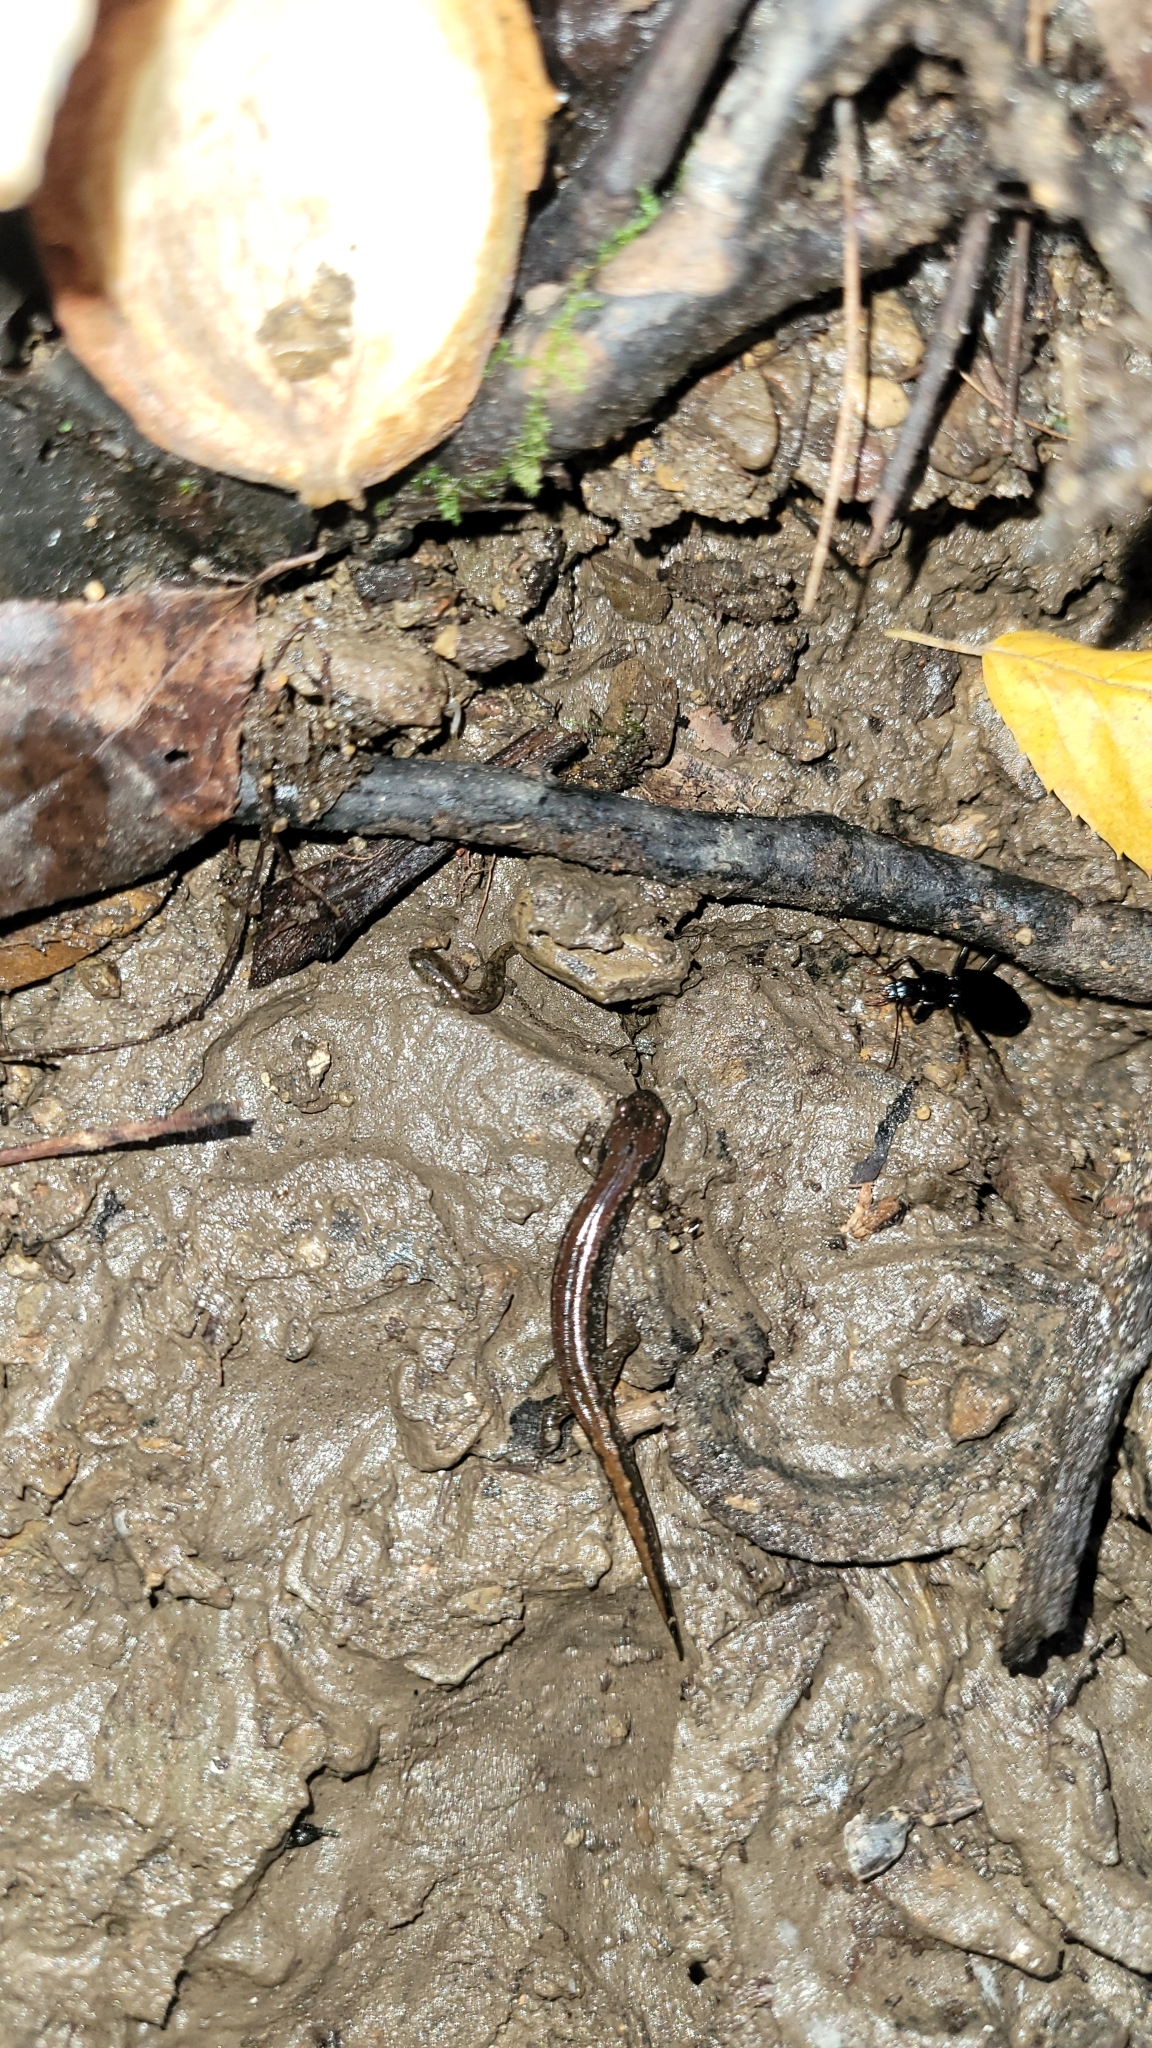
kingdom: Animalia
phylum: Chordata
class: Amphibia
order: Caudata
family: Plethodontidae
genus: Desmognathus
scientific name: Desmognathus ochrophaeus
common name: Allegheny mountain dusky salamander
